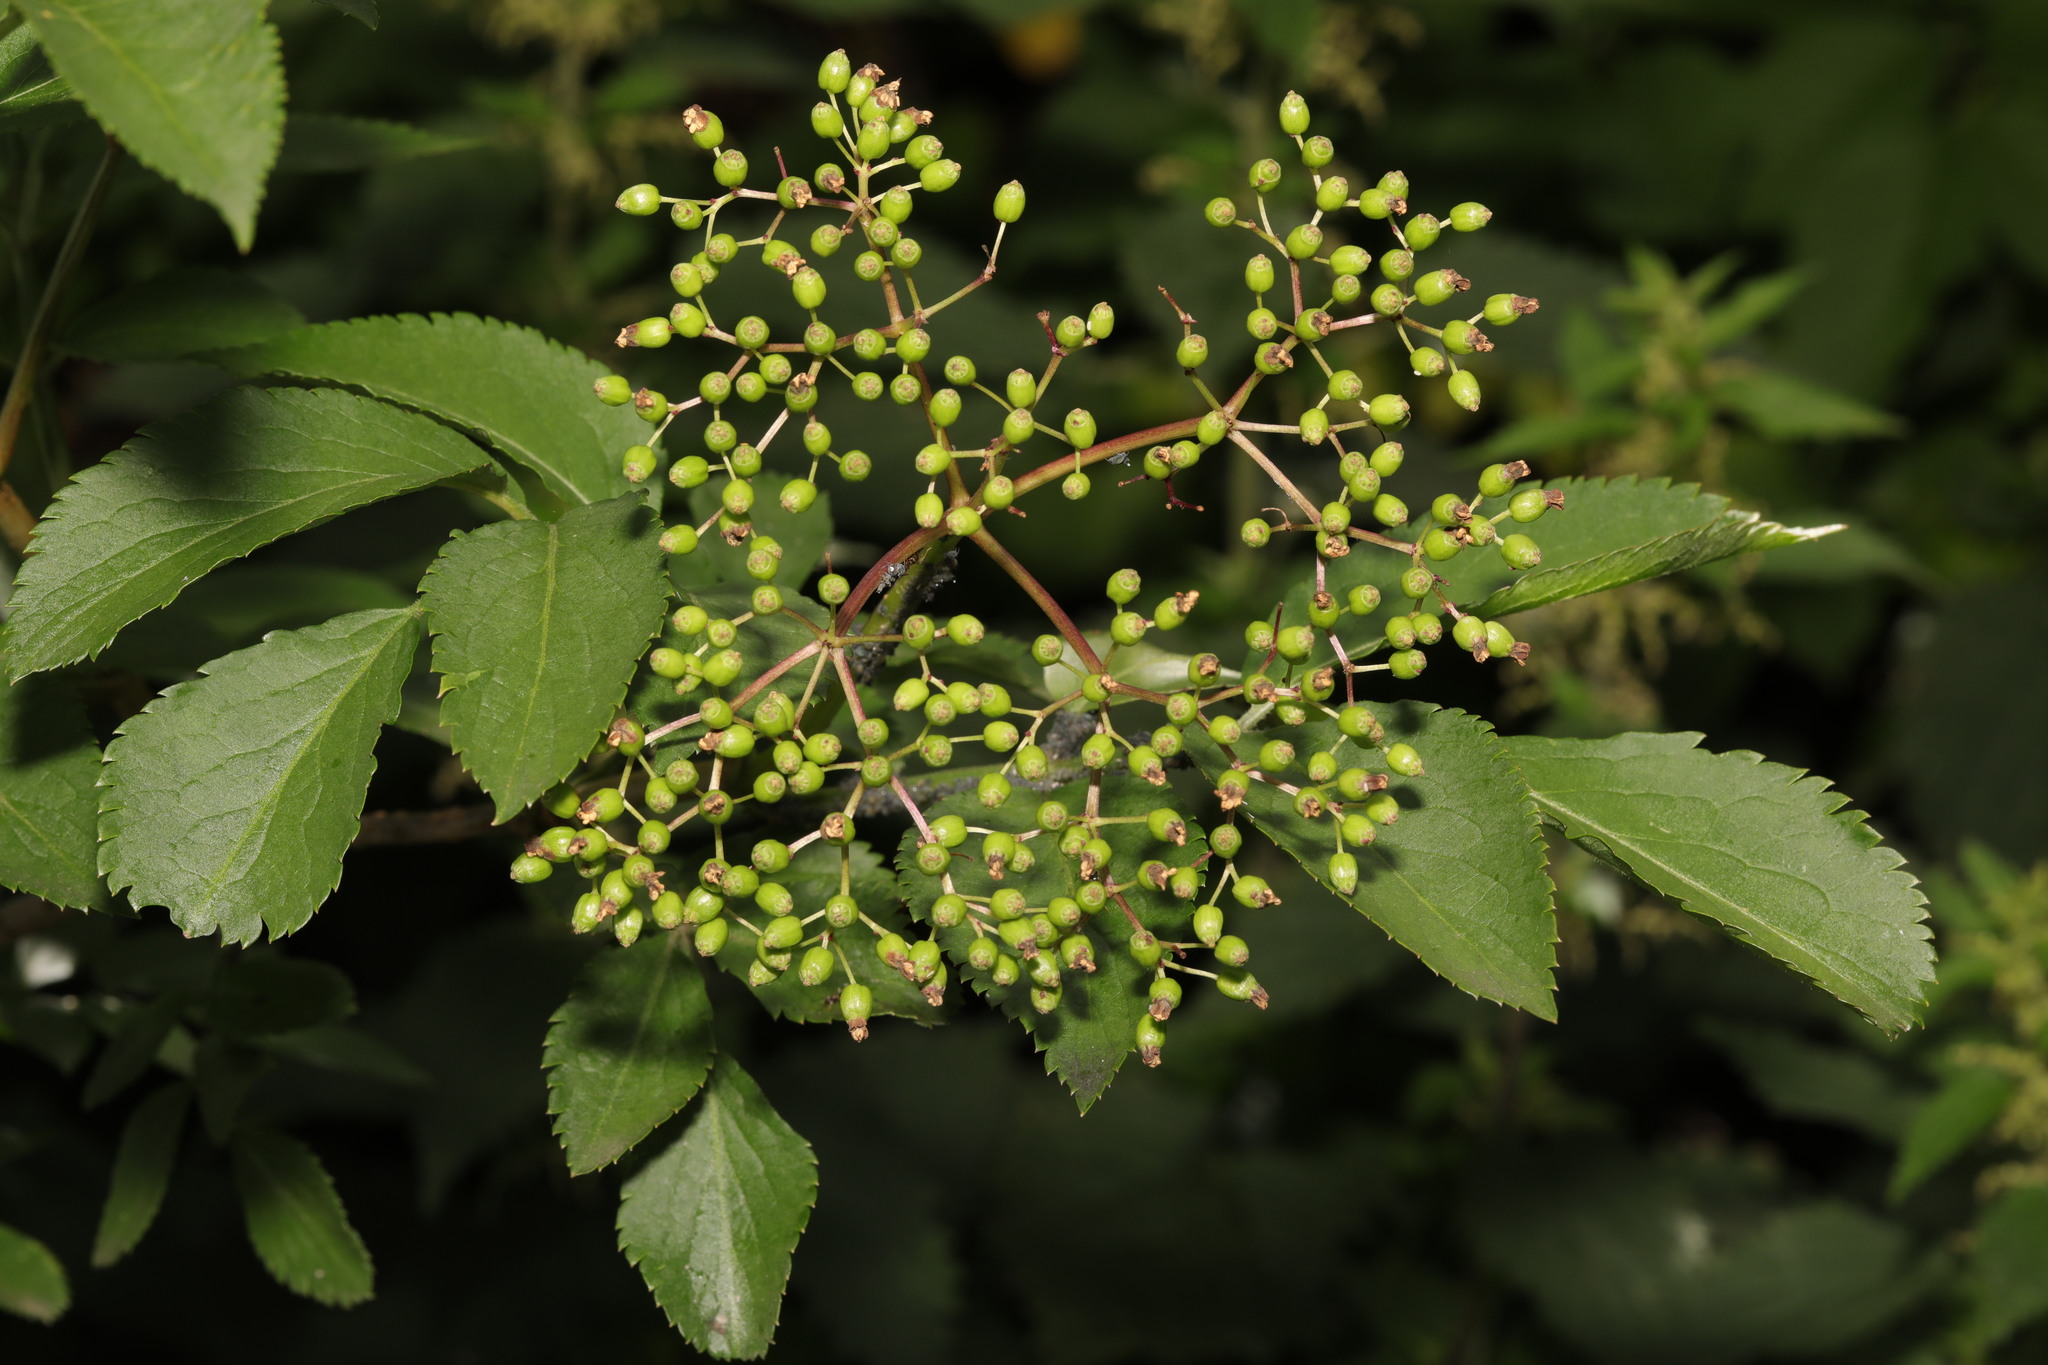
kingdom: Plantae
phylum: Tracheophyta
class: Magnoliopsida
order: Dipsacales
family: Viburnaceae
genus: Sambucus
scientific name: Sambucus nigra
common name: Elder
